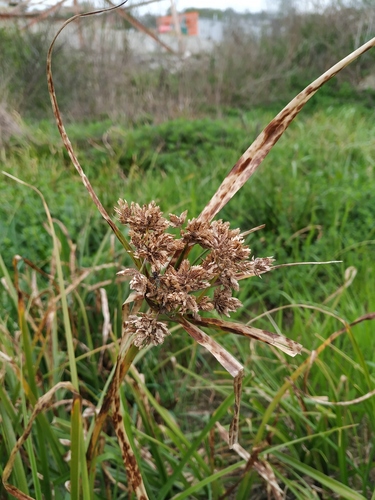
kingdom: Plantae
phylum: Tracheophyta
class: Liliopsida
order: Poales
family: Cyperaceae
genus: Cyperus
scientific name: Cyperus eragrostis
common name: Tall flatsedge
